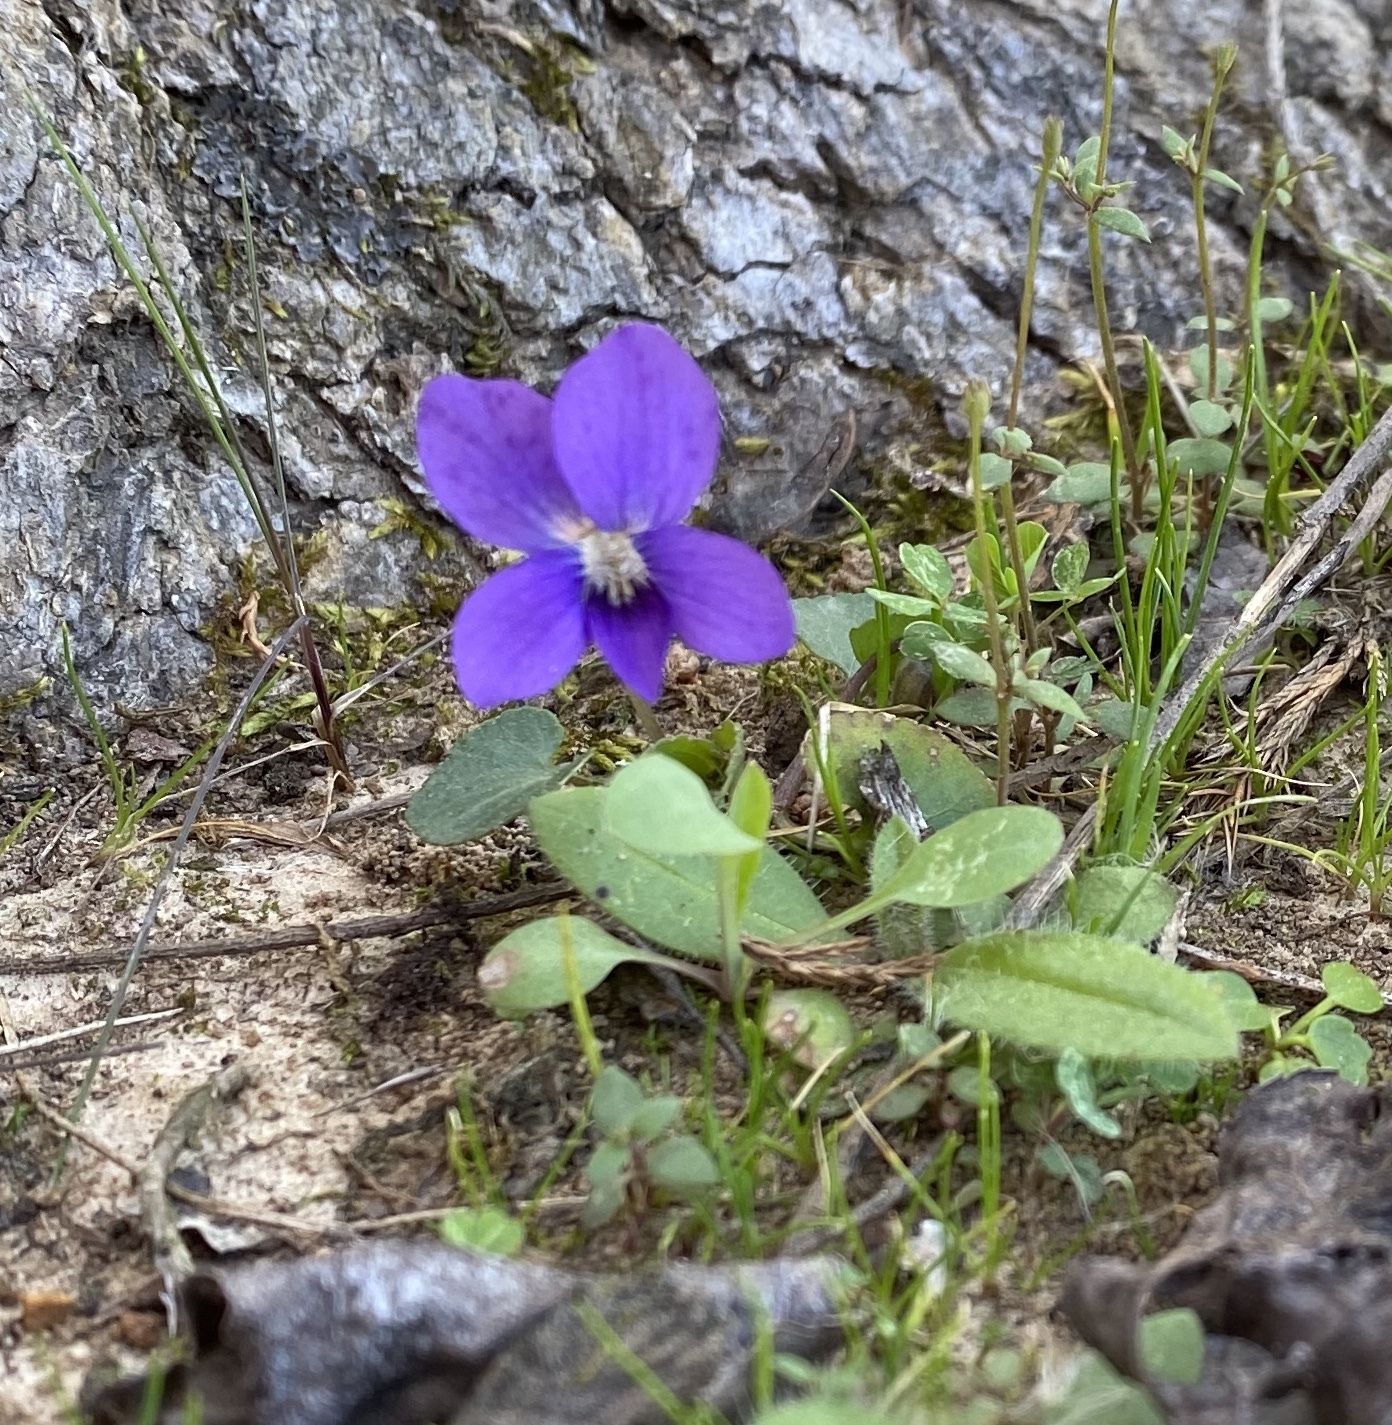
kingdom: Plantae
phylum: Tracheophyta
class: Magnoliopsida
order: Malpighiales
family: Violaceae
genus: Viola
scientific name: Viola sororia
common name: Dooryard violet
